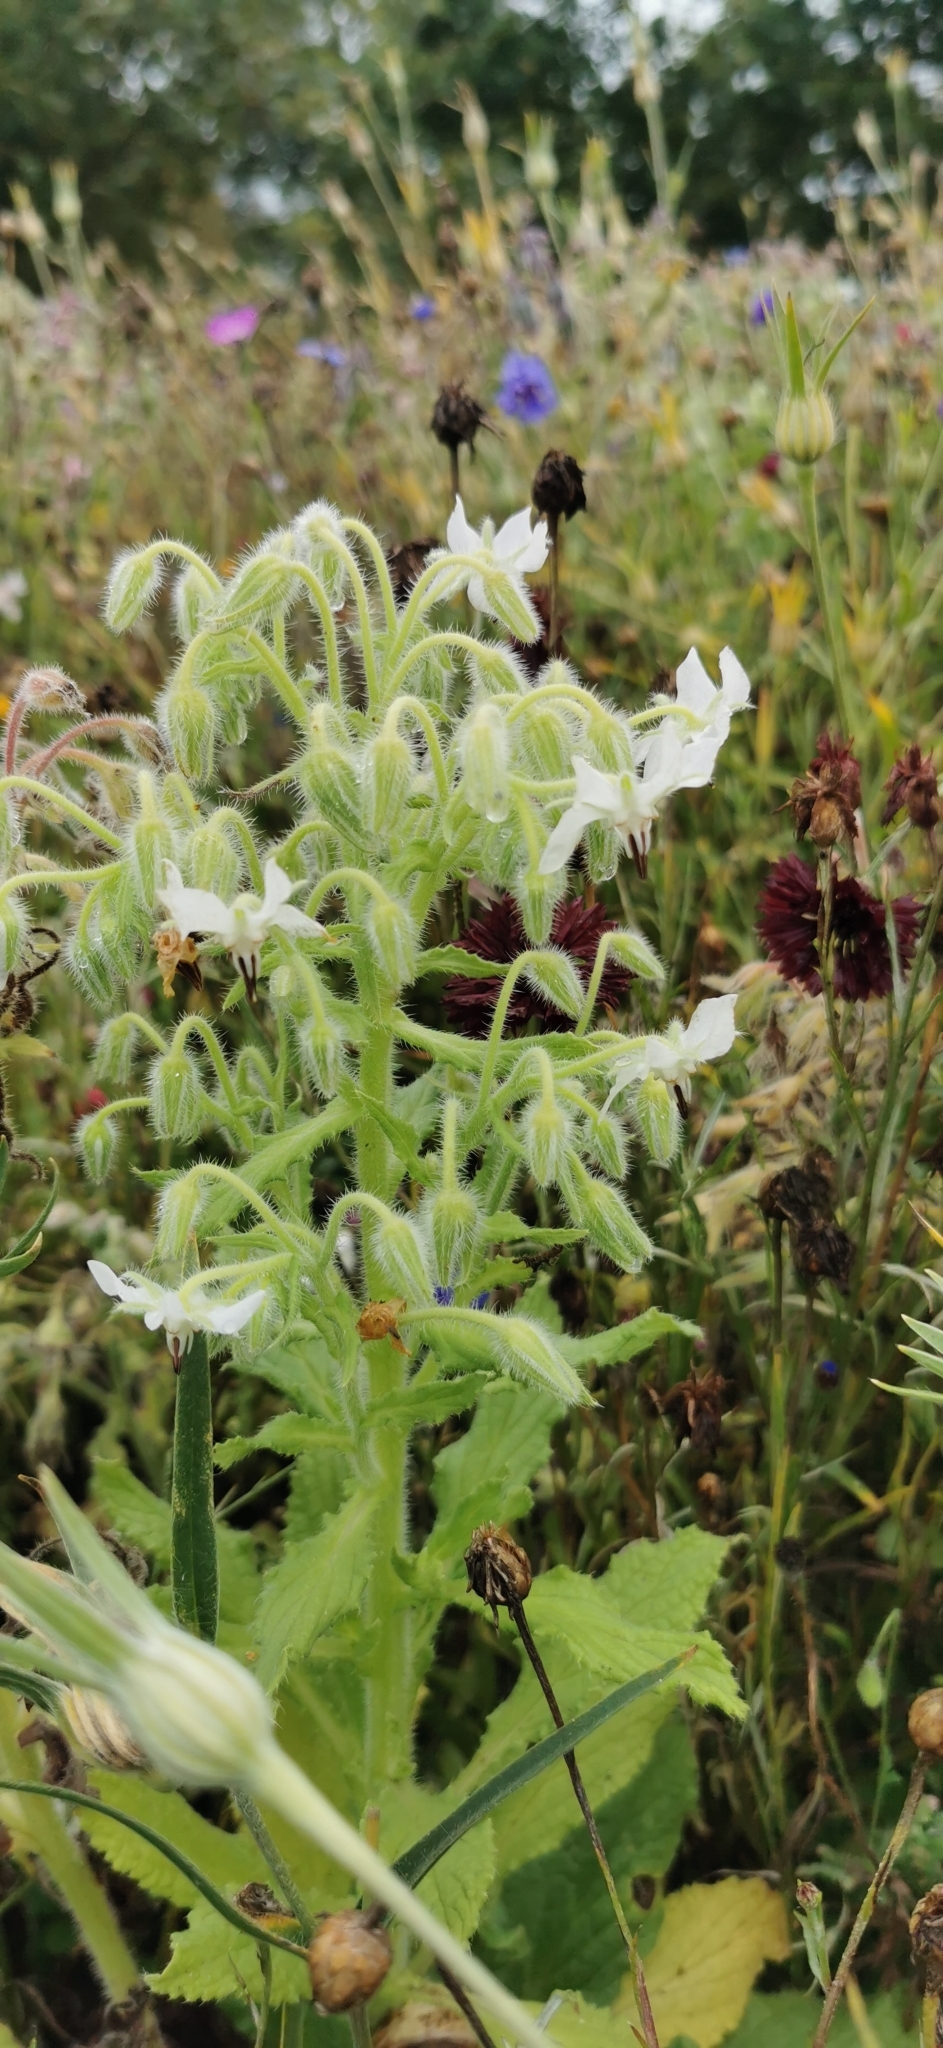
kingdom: Plantae
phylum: Tracheophyta
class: Magnoliopsida
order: Boraginales
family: Boraginaceae
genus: Borago
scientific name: Borago officinalis
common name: Borage
